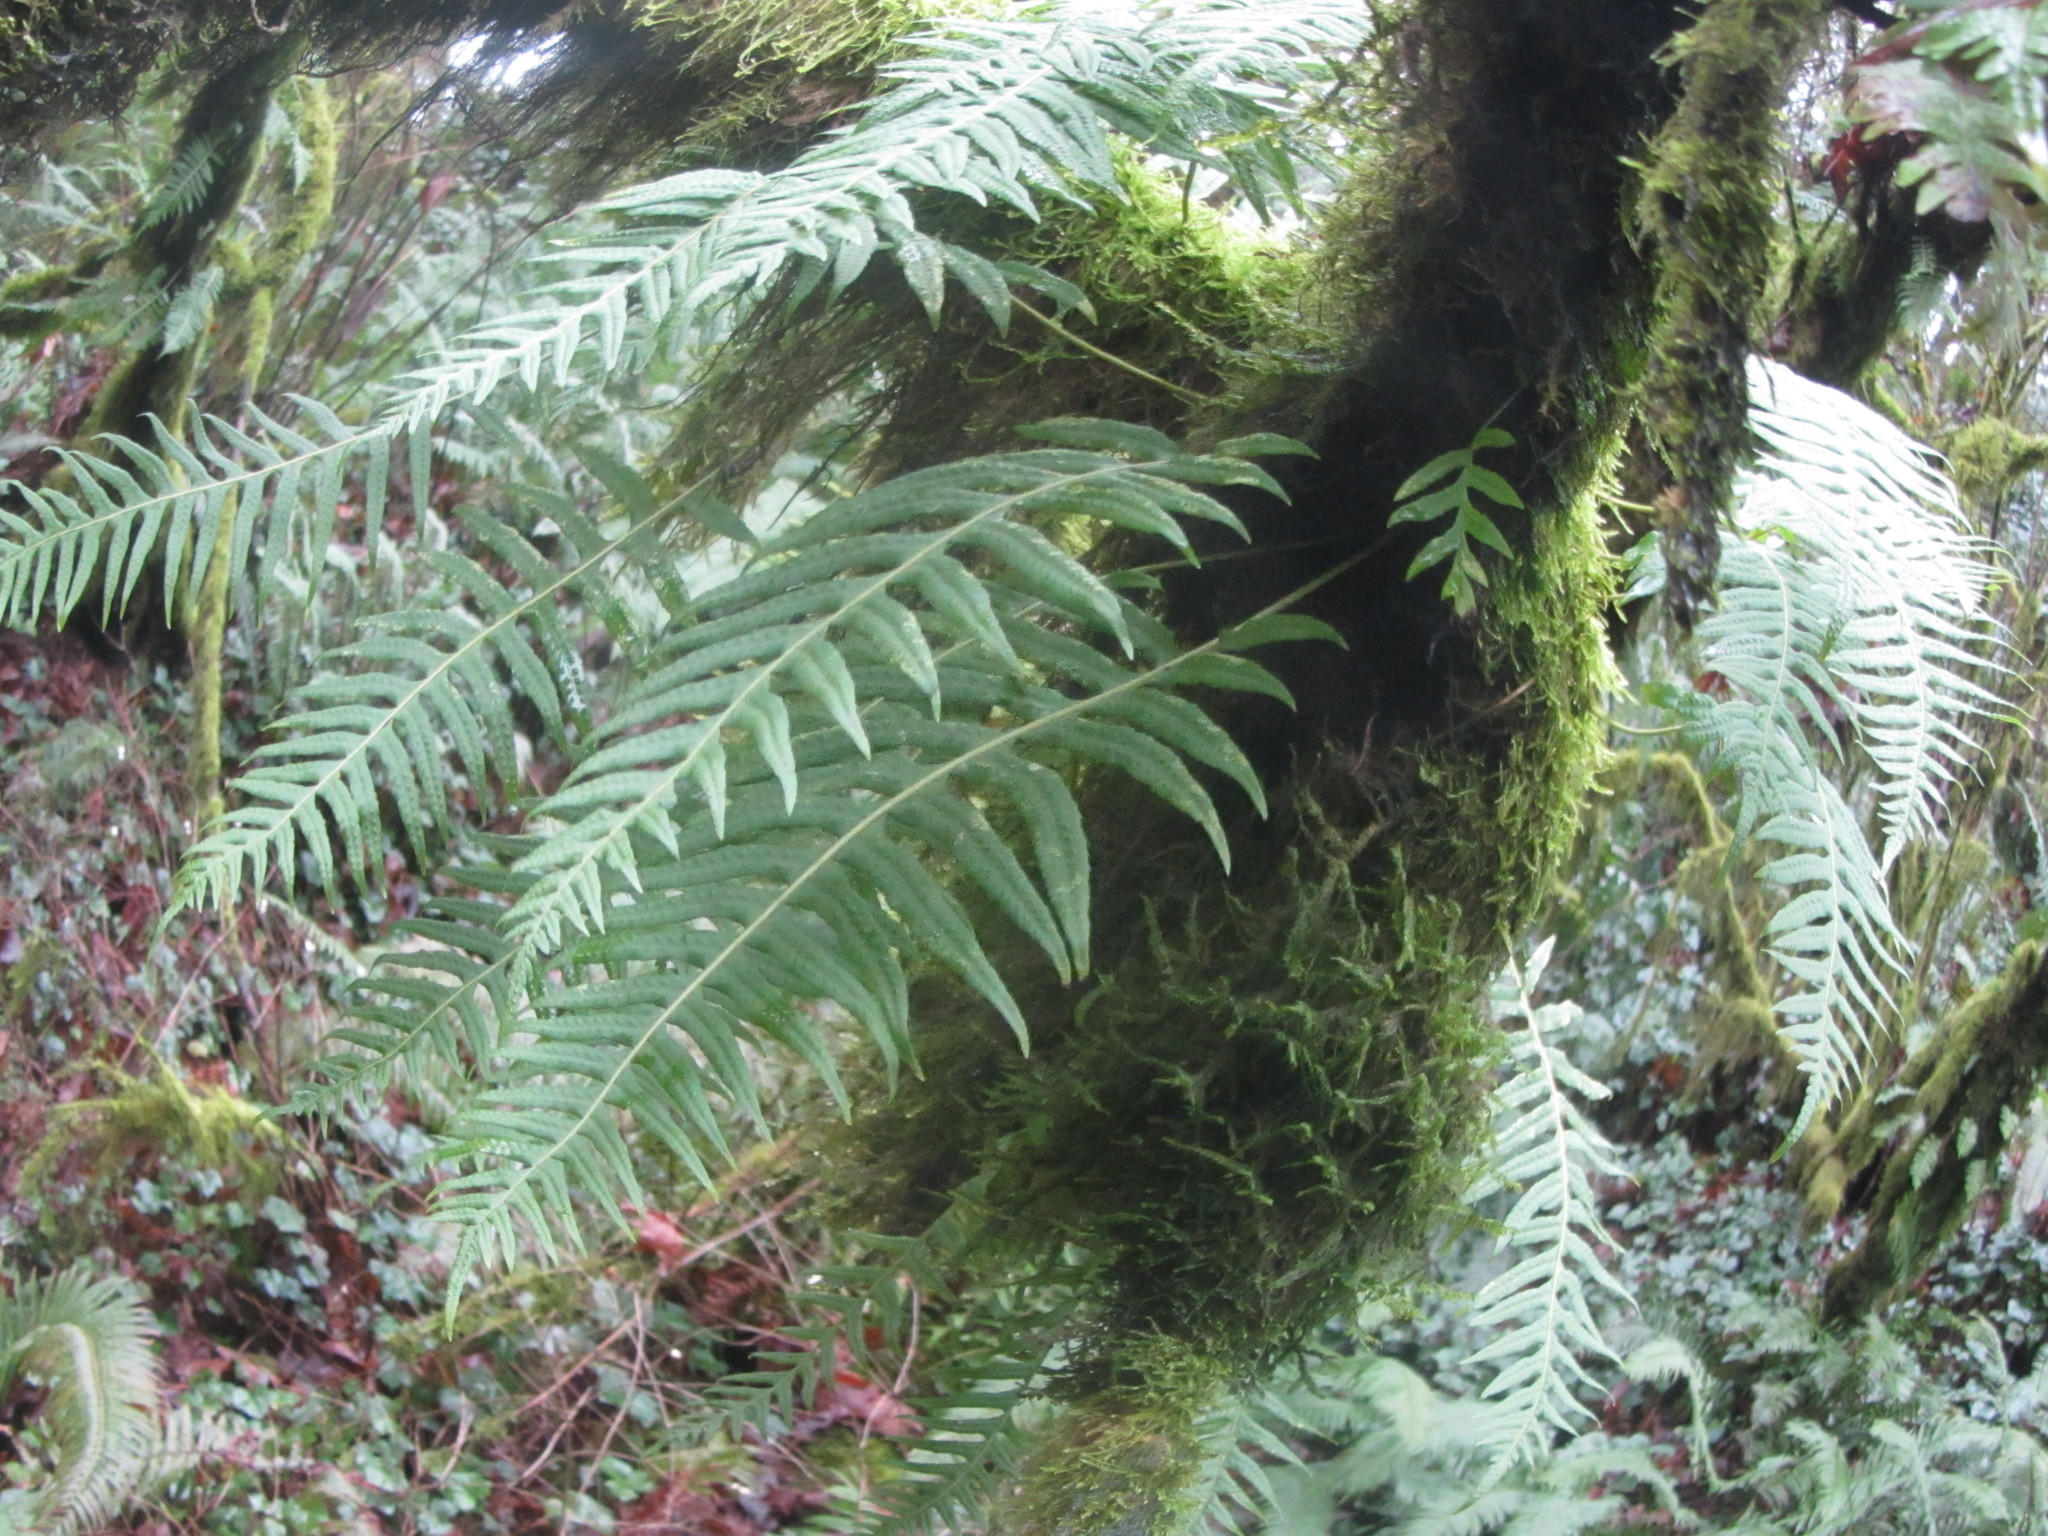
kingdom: Plantae
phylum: Tracheophyta
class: Polypodiopsida
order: Polypodiales
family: Polypodiaceae
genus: Polypodium
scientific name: Polypodium glycyrrhiza
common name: Licorice fern
